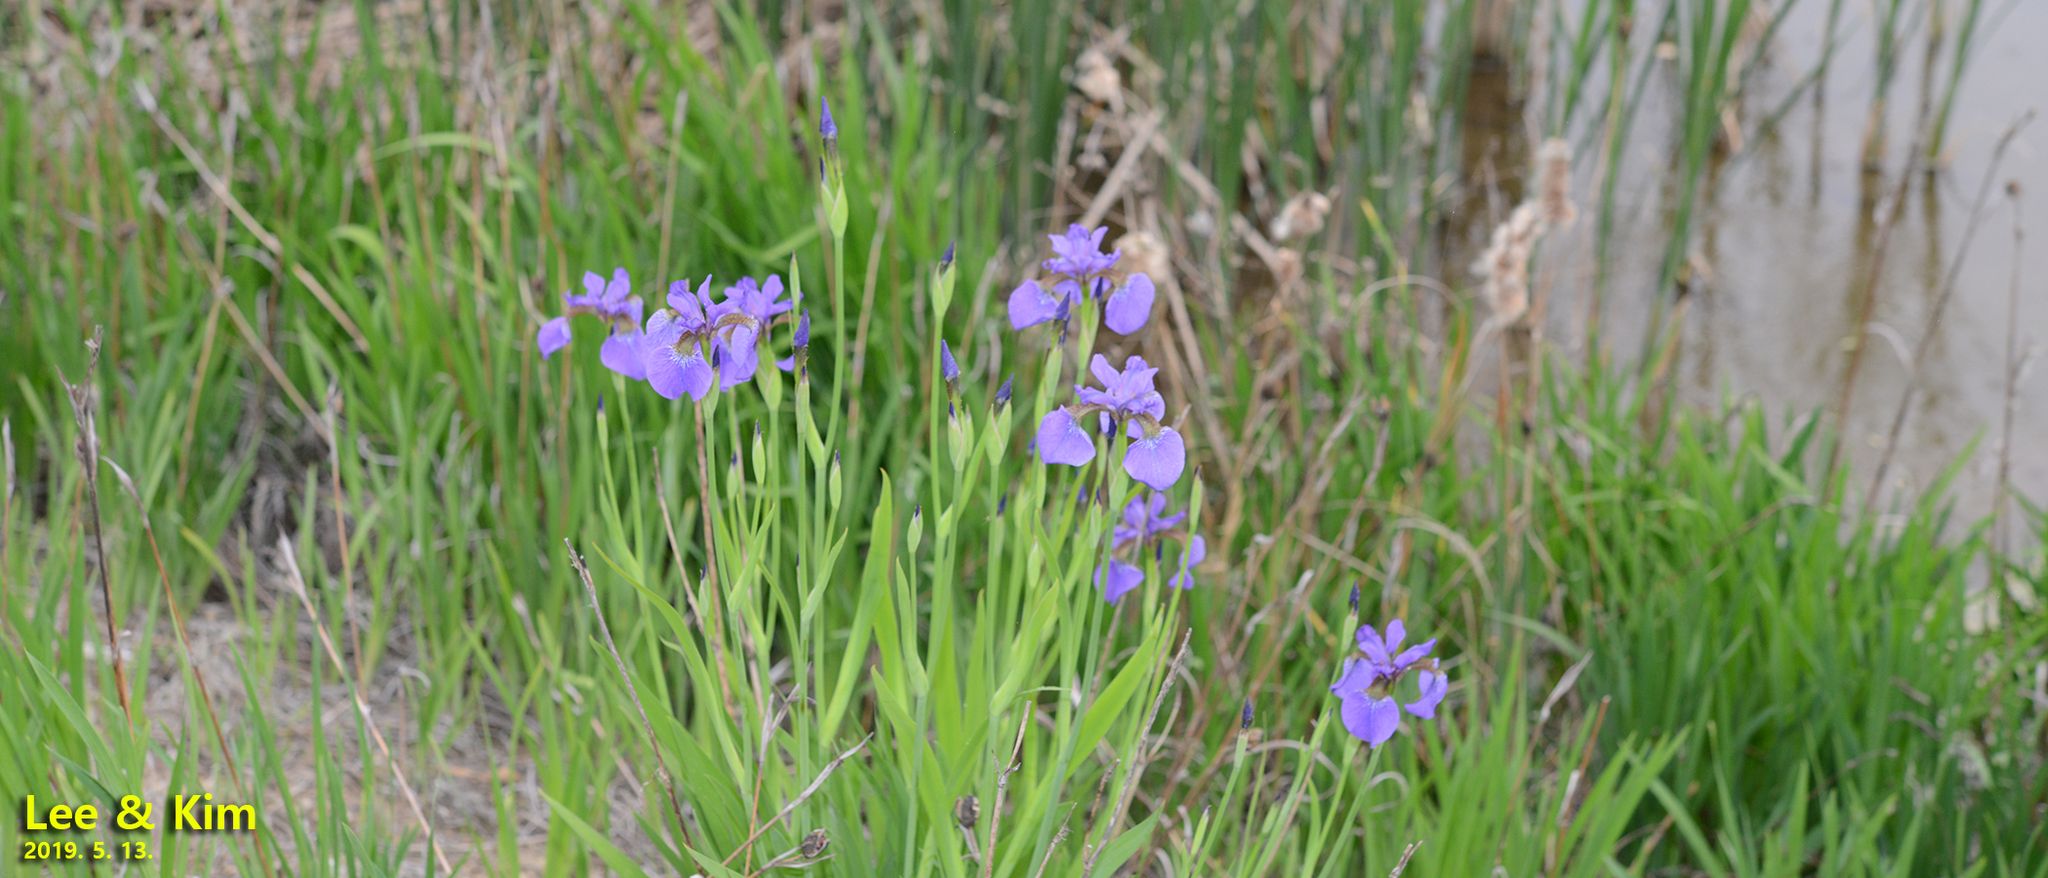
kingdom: Plantae
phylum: Tracheophyta
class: Liliopsida
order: Asparagales
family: Iridaceae
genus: Iris
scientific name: Iris sanguinea
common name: Blood iris
